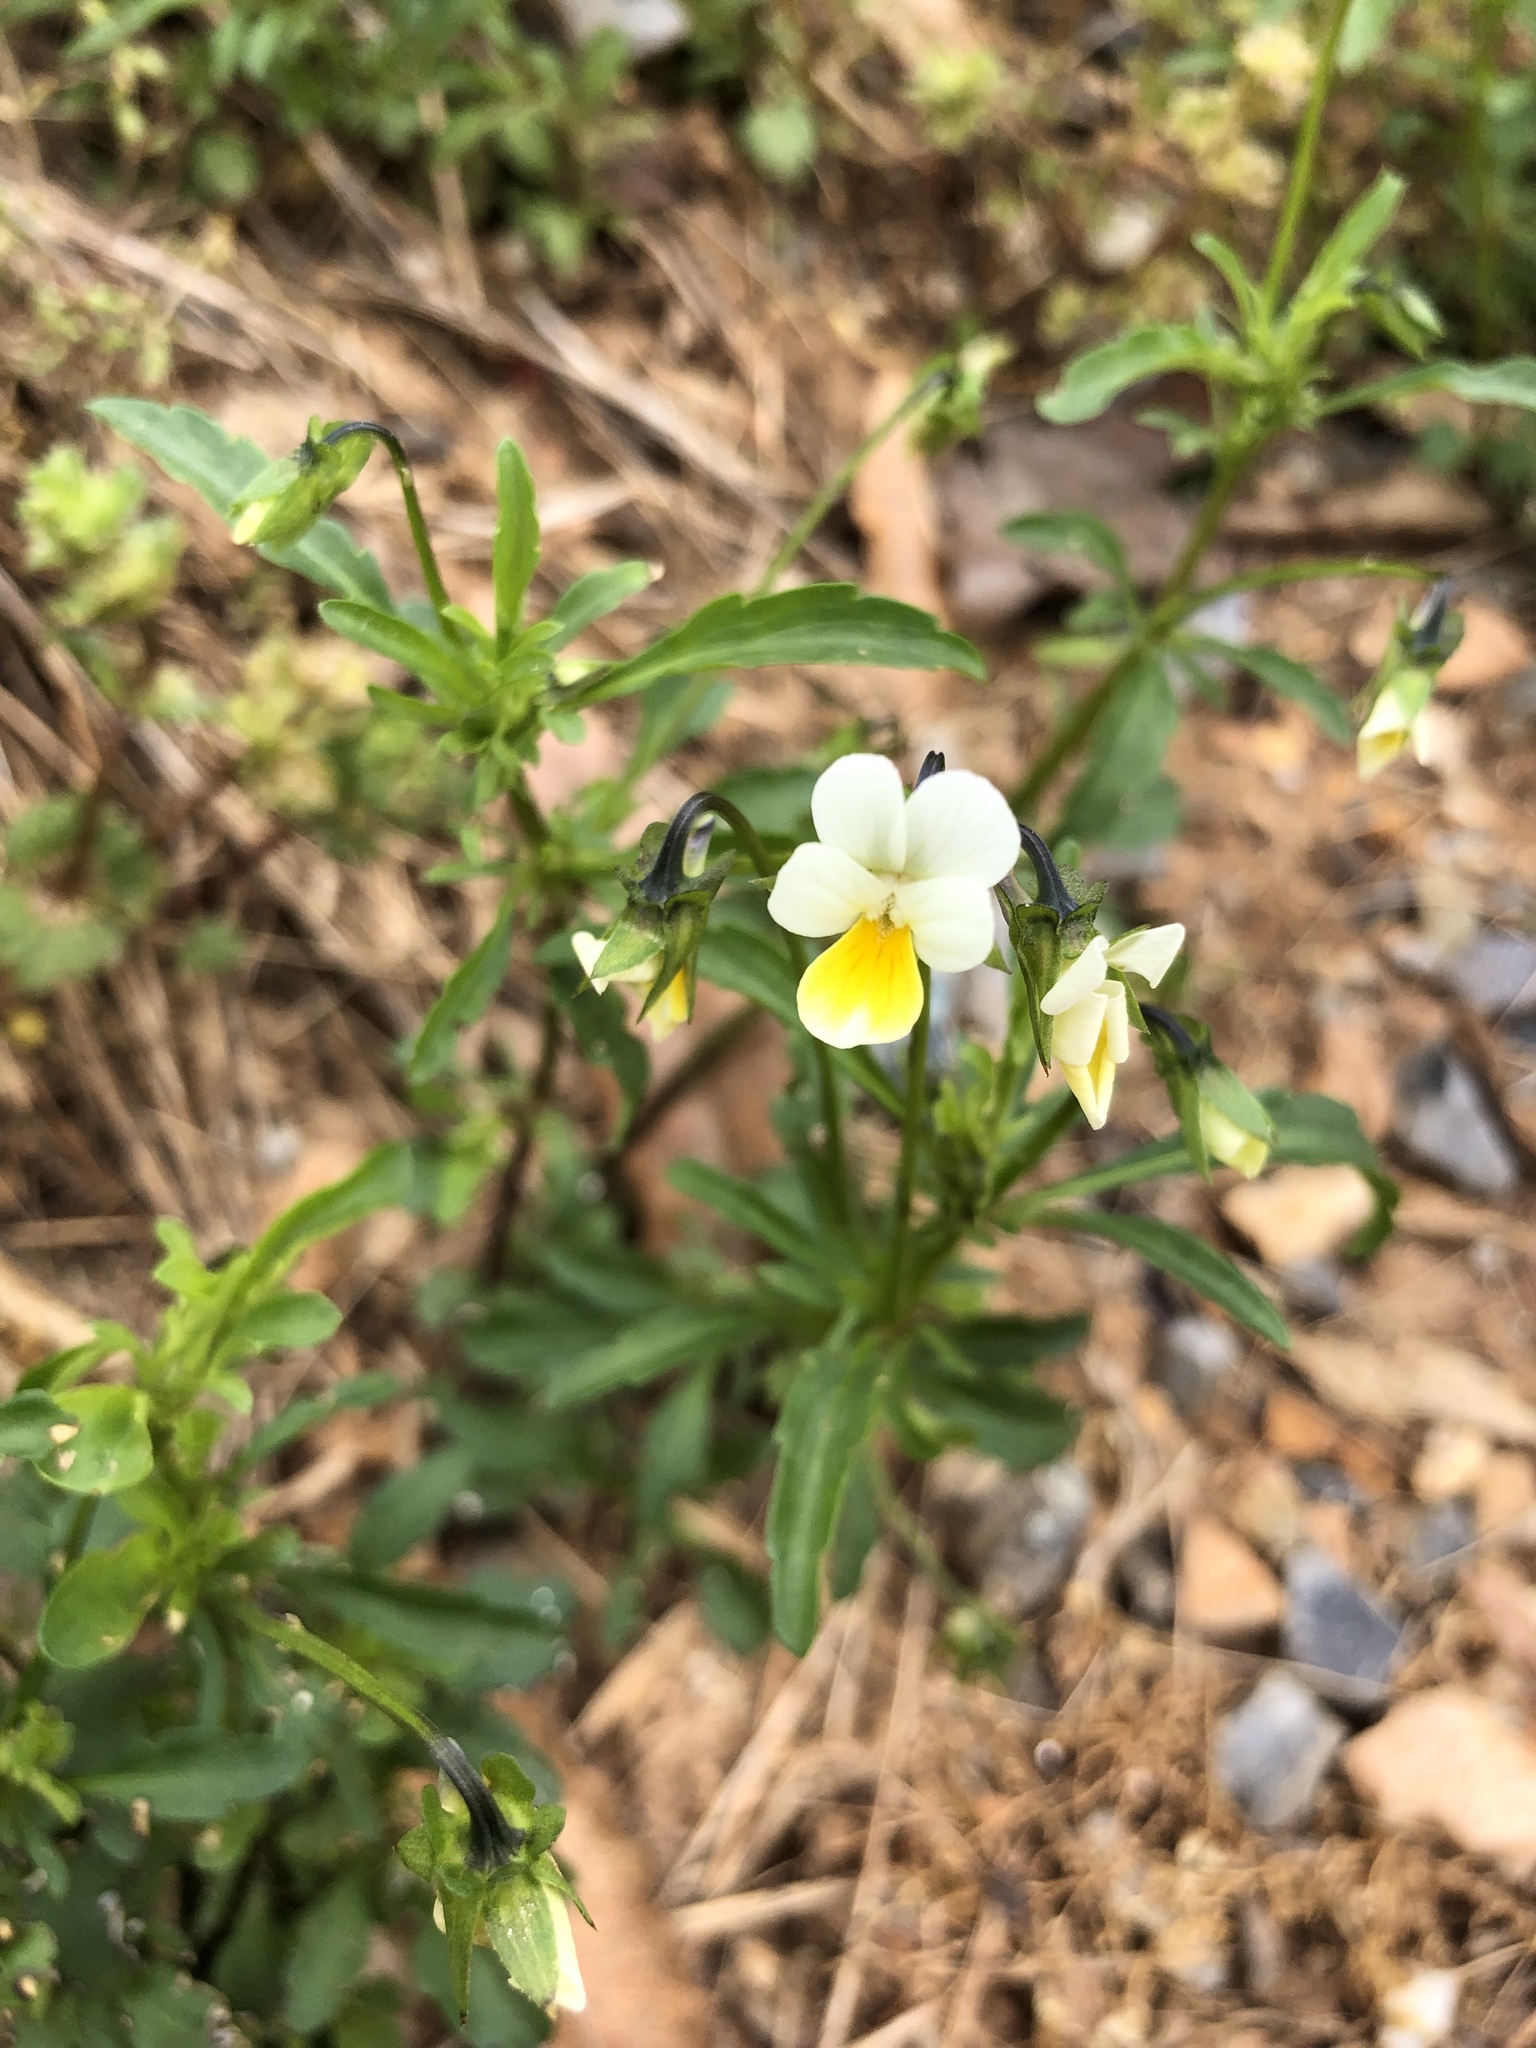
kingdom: Plantae
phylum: Tracheophyta
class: Magnoliopsida
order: Malpighiales
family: Violaceae
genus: Viola
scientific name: Viola arvensis
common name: Field pansy
